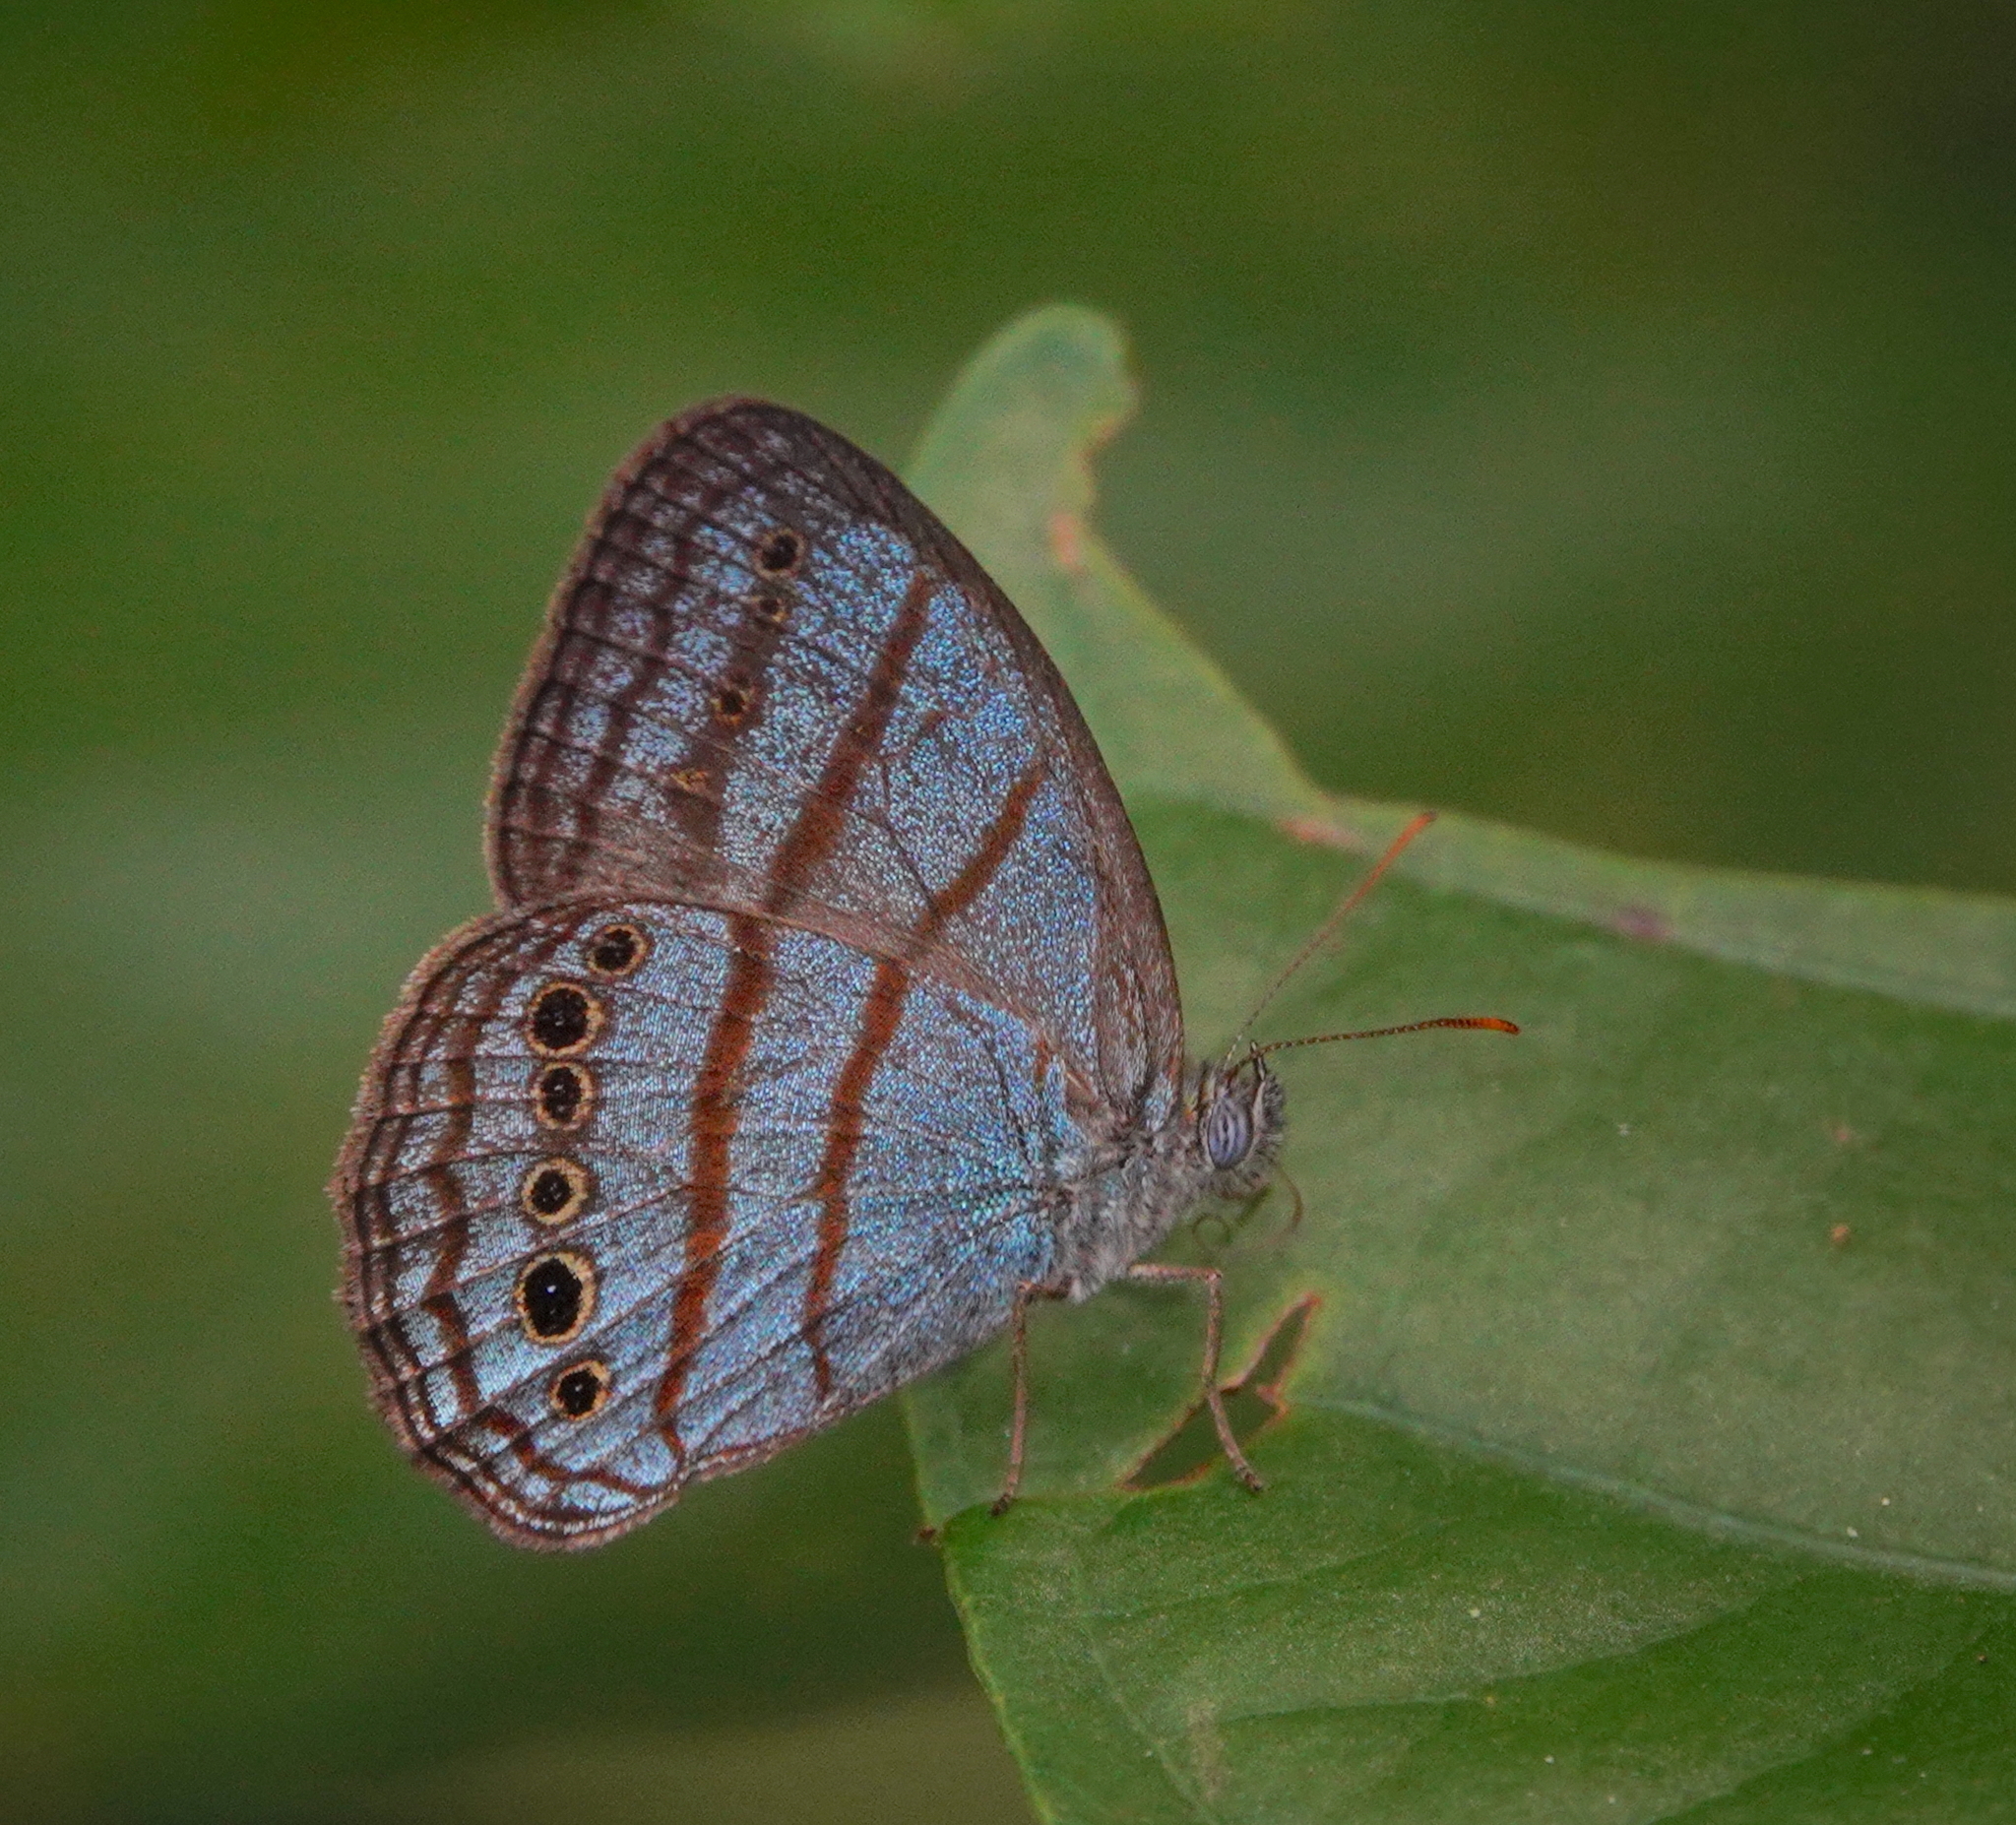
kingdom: Animalia
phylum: Arthropoda
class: Insecta
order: Lepidoptera
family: Nymphalidae
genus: Caeruleuptychia
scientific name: Caeruleuptychia twalela
